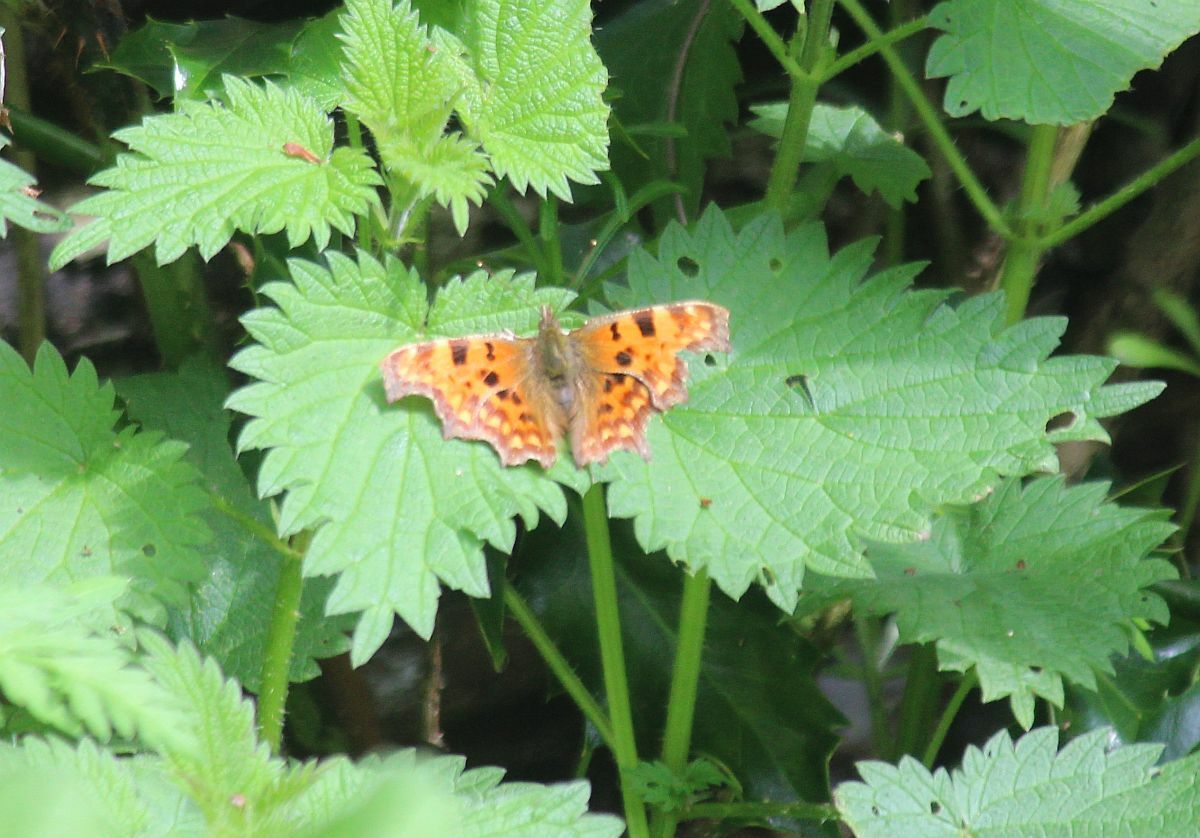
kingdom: Animalia
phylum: Arthropoda
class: Insecta
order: Lepidoptera
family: Nymphalidae
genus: Polygonia
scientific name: Polygonia c-album
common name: Comma
